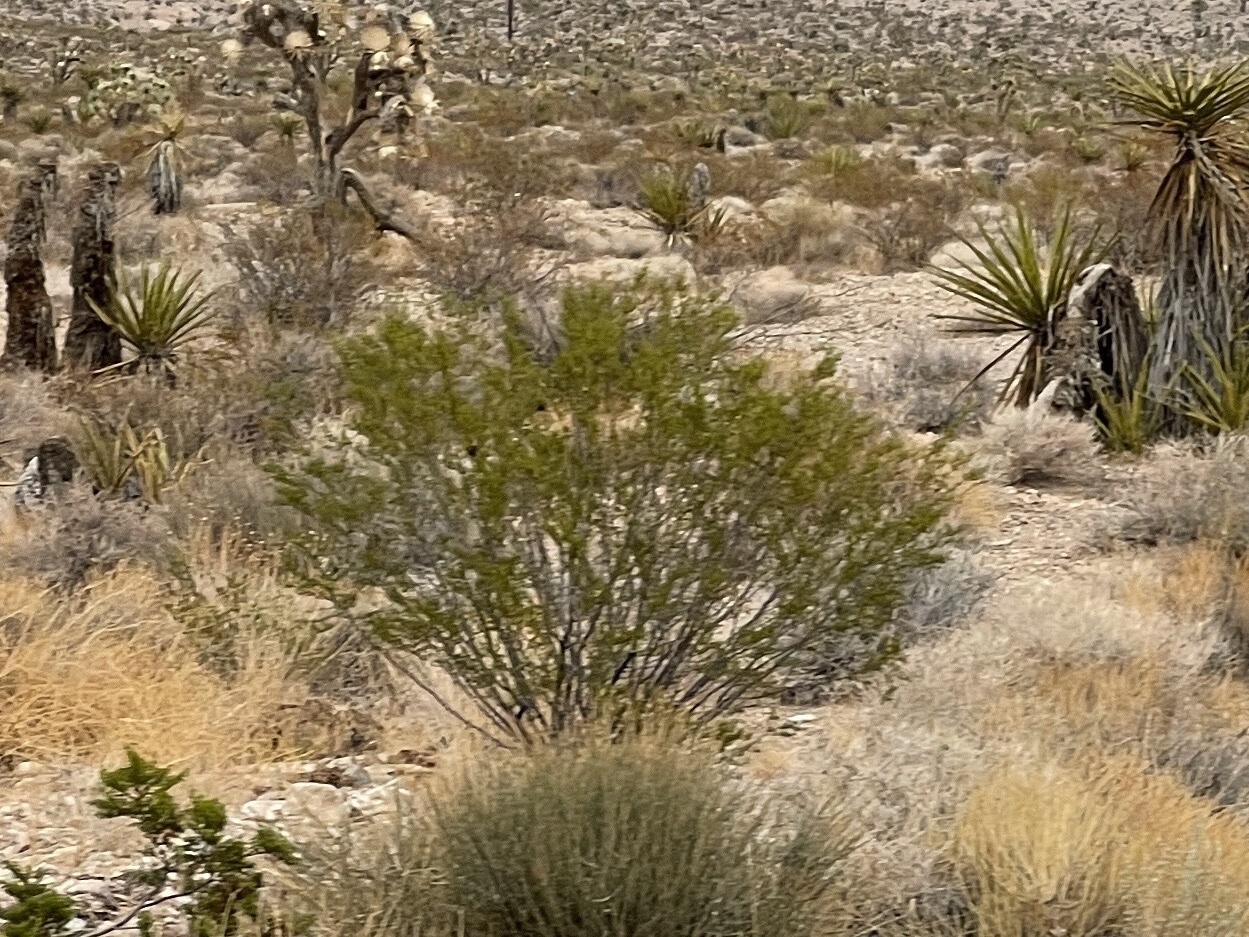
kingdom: Plantae
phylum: Tracheophyta
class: Magnoliopsida
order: Zygophyllales
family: Zygophyllaceae
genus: Larrea
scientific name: Larrea tridentata
